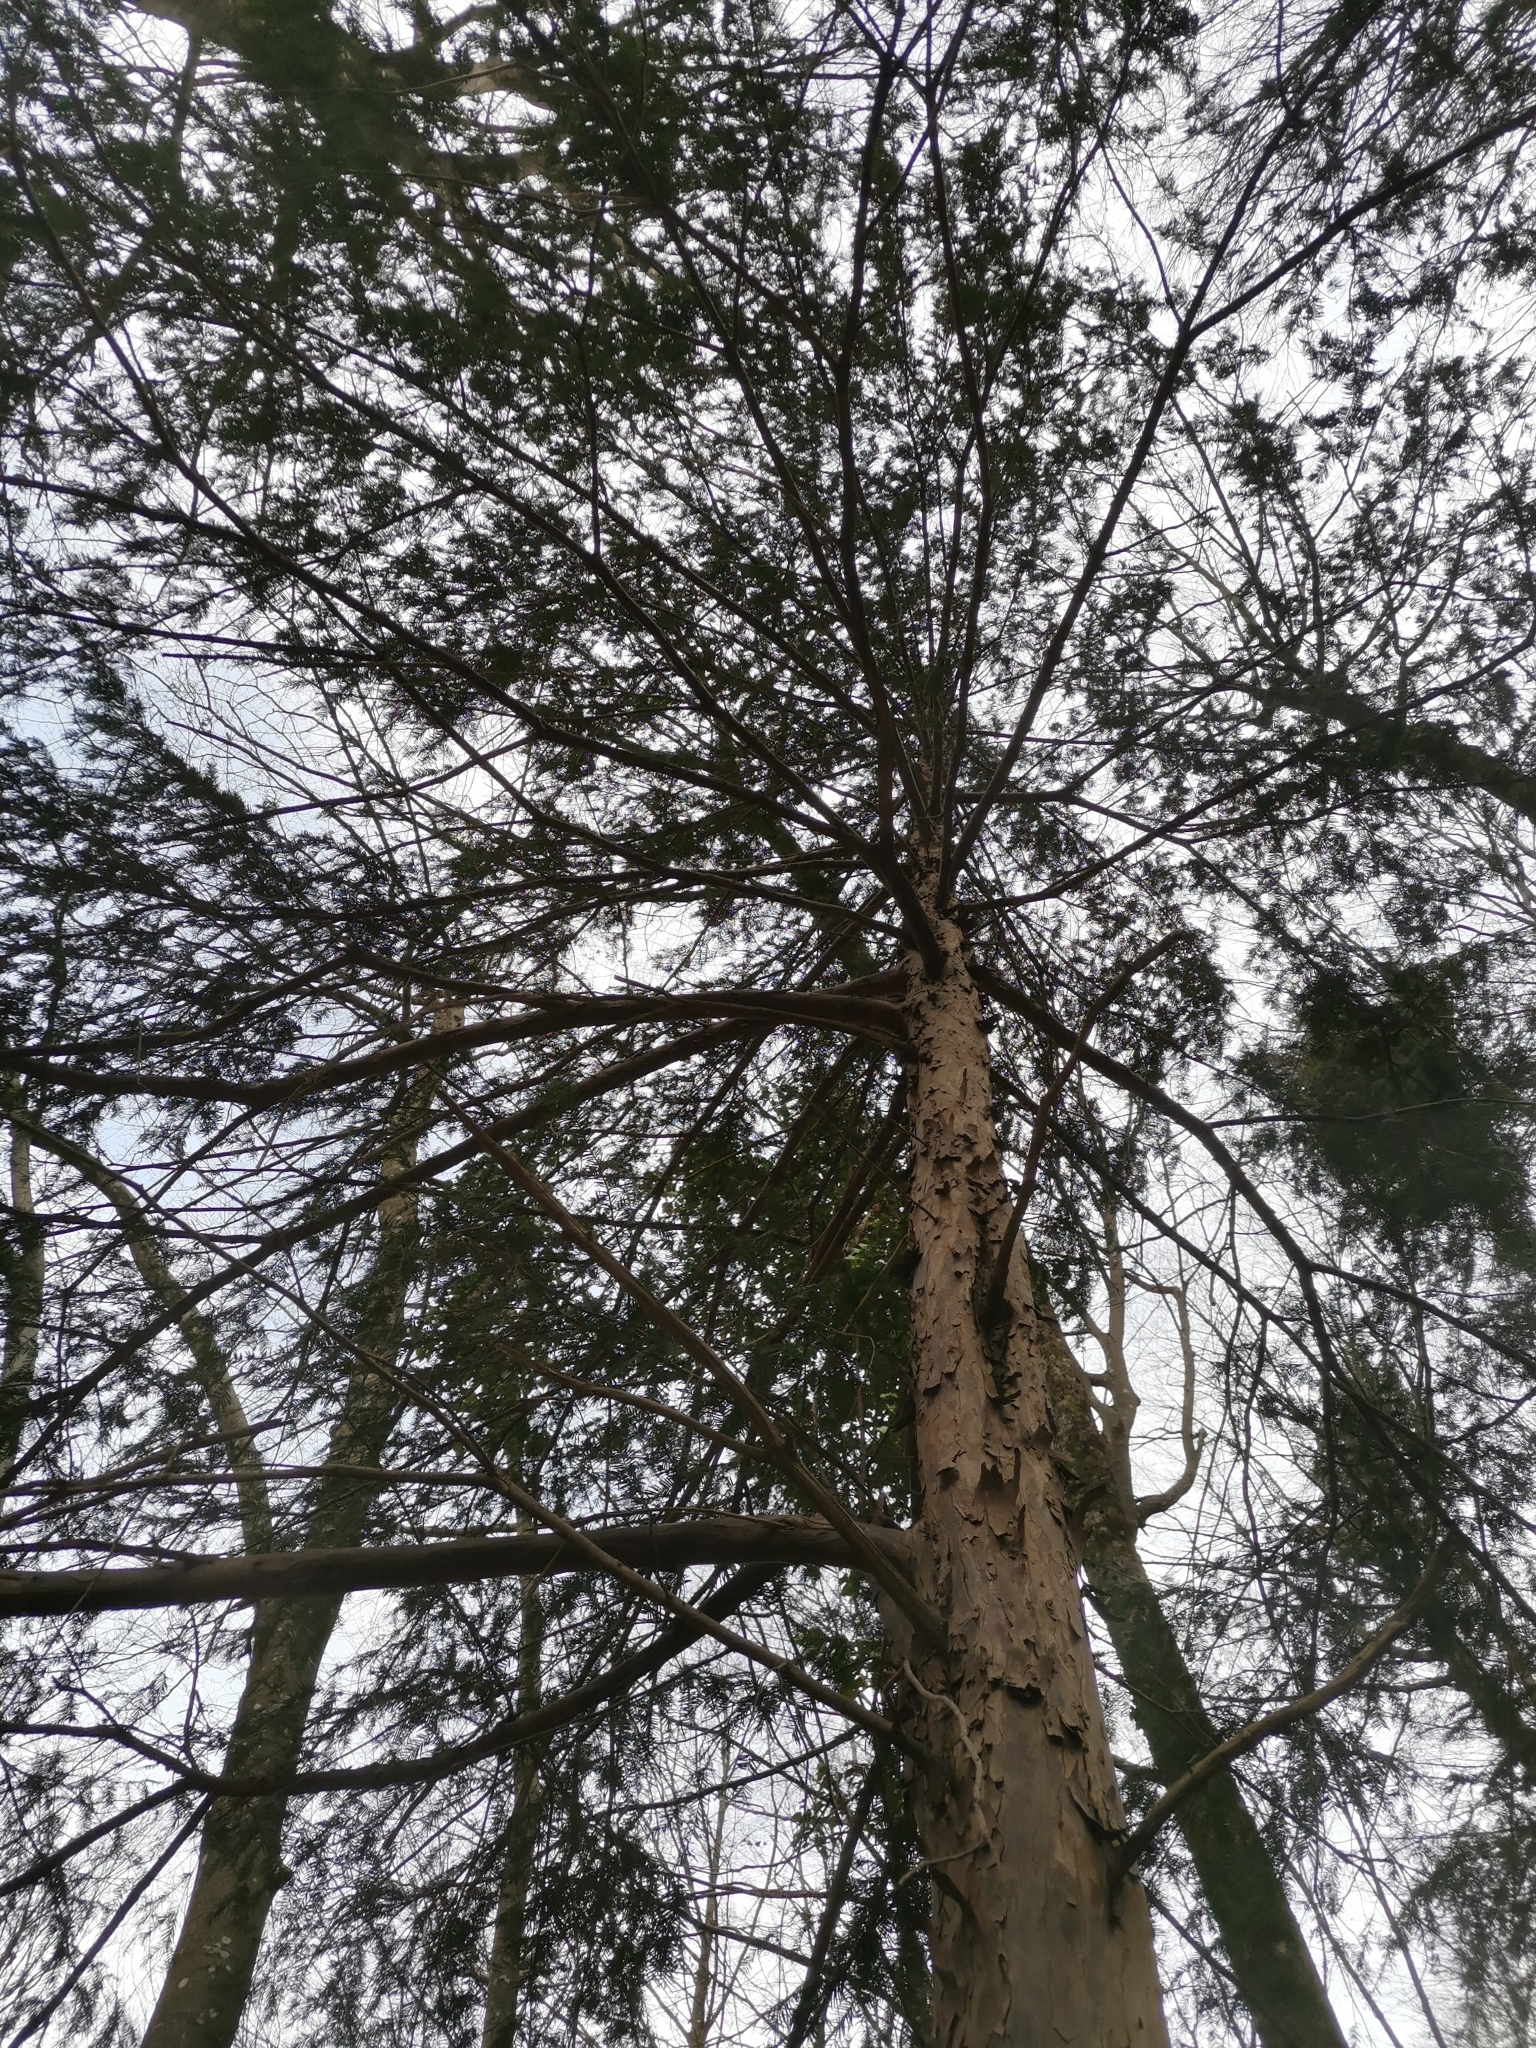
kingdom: Plantae
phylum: Tracheophyta
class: Pinopsida
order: Pinales
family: Taxaceae
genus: Taxus
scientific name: Taxus baccata
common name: Yew
